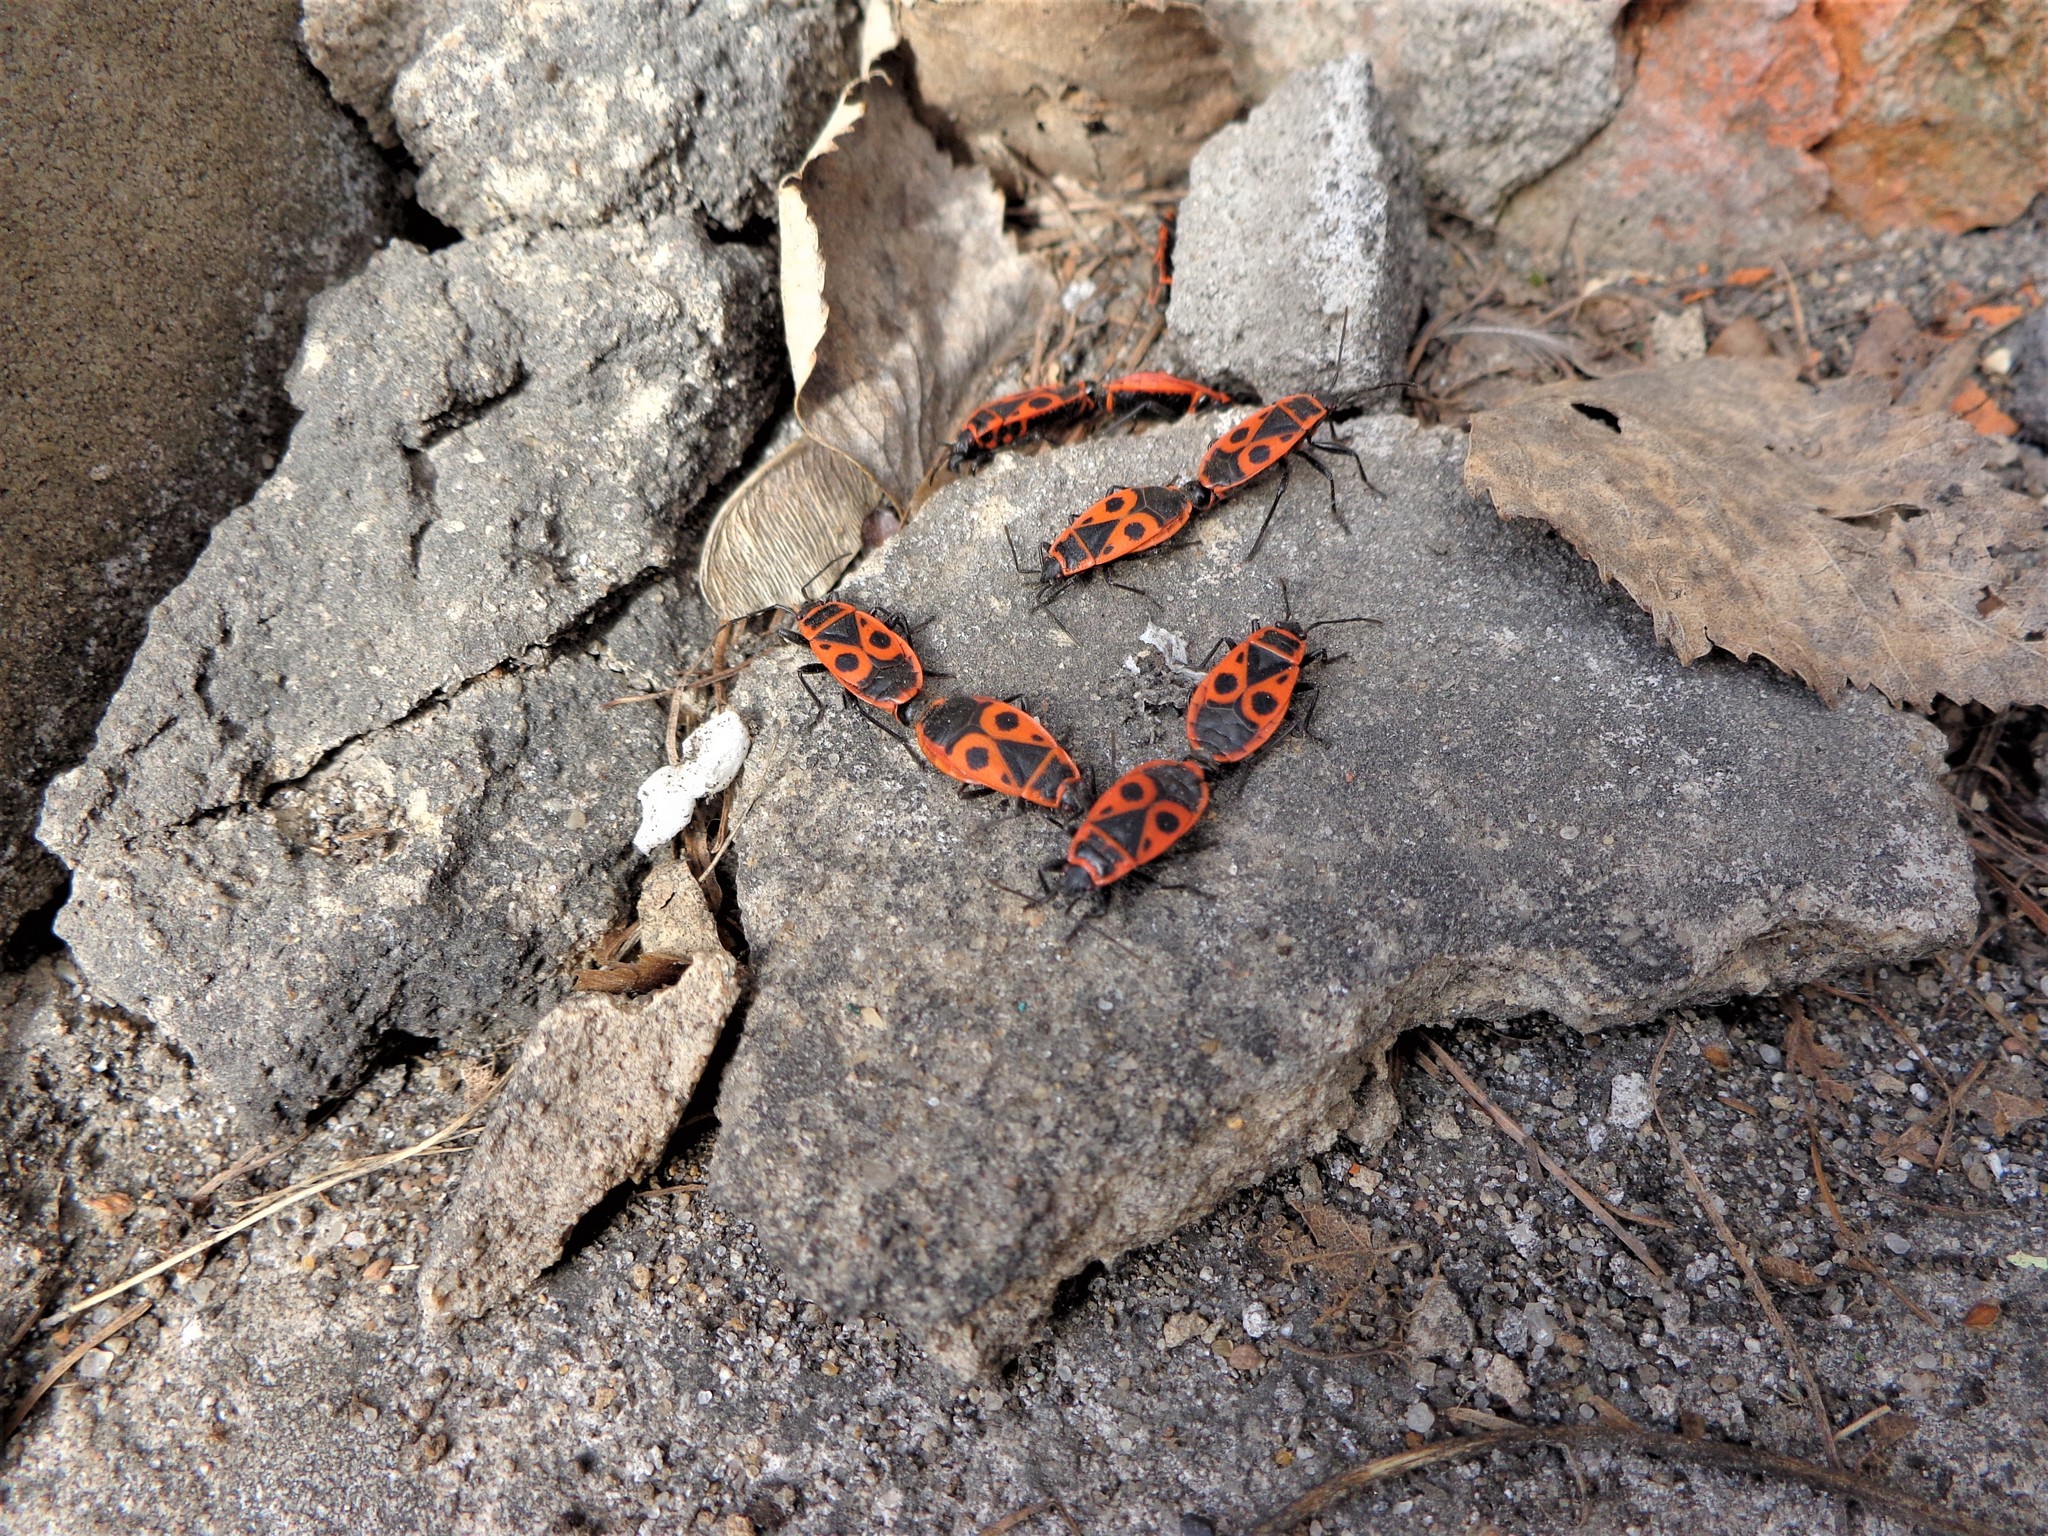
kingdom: Animalia
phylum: Arthropoda
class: Insecta
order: Hemiptera
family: Pyrrhocoridae
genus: Pyrrhocoris
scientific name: Pyrrhocoris apterus
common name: Firebug
